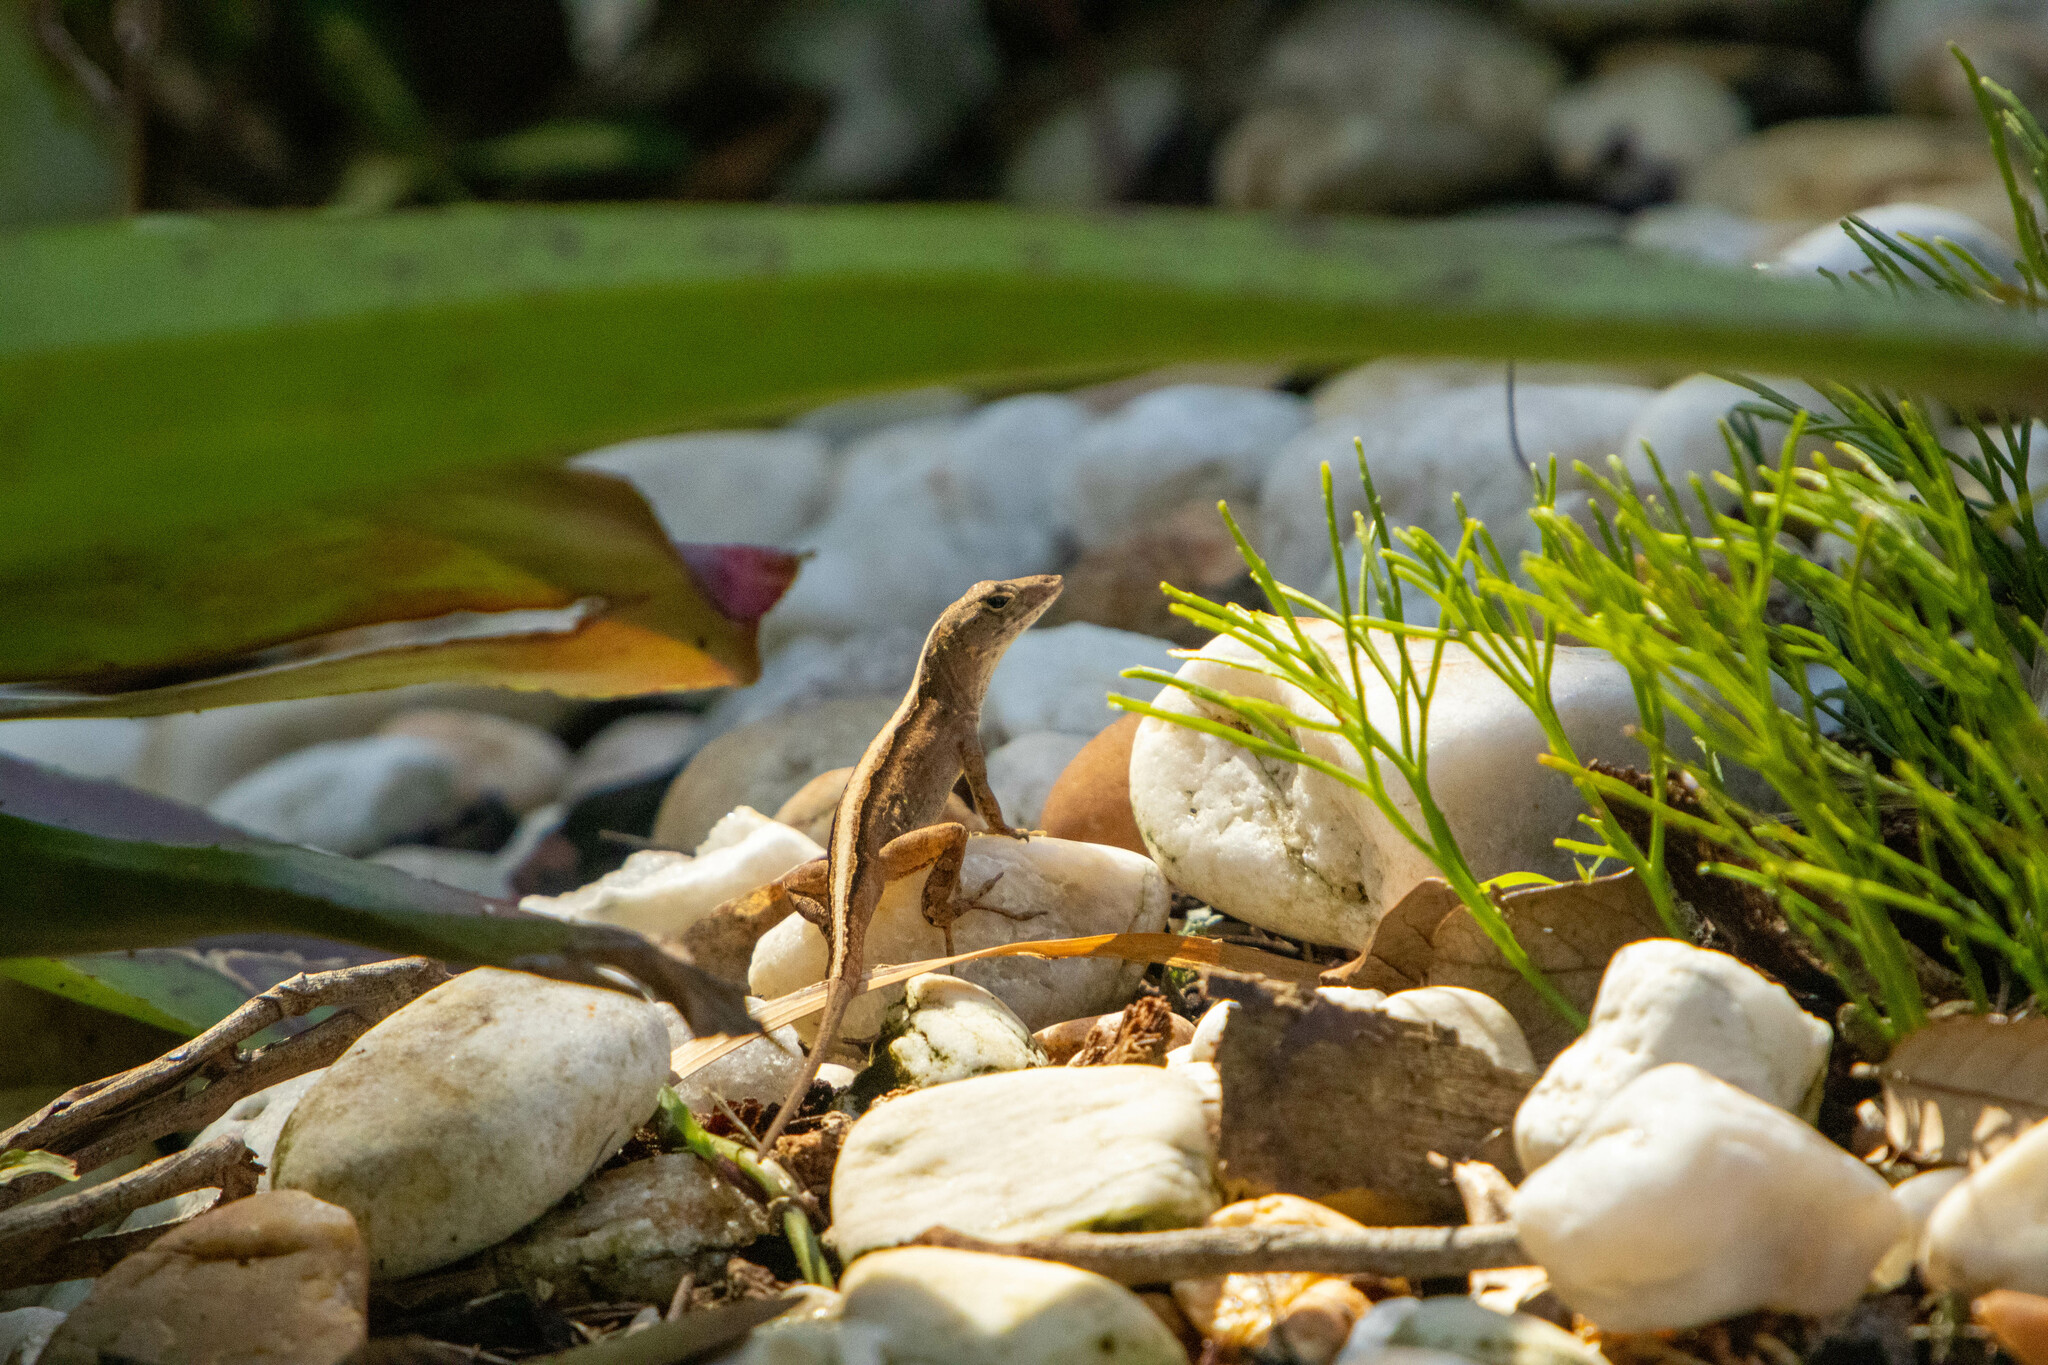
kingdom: Animalia
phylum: Chordata
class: Squamata
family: Dactyloidae
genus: Anolis
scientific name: Anolis sagrei
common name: Brown anole
